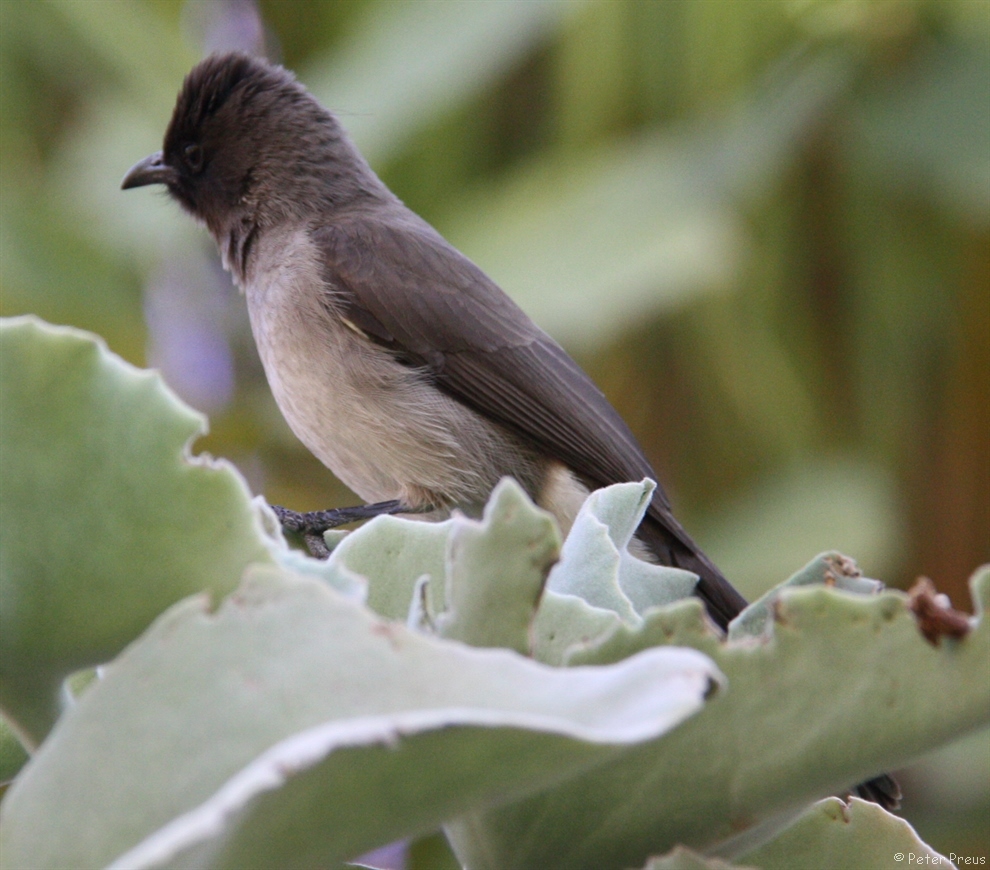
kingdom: Animalia
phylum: Chordata
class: Aves
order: Passeriformes
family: Pycnonotidae
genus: Pycnonotus
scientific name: Pycnonotus barbatus
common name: Common bulbul
